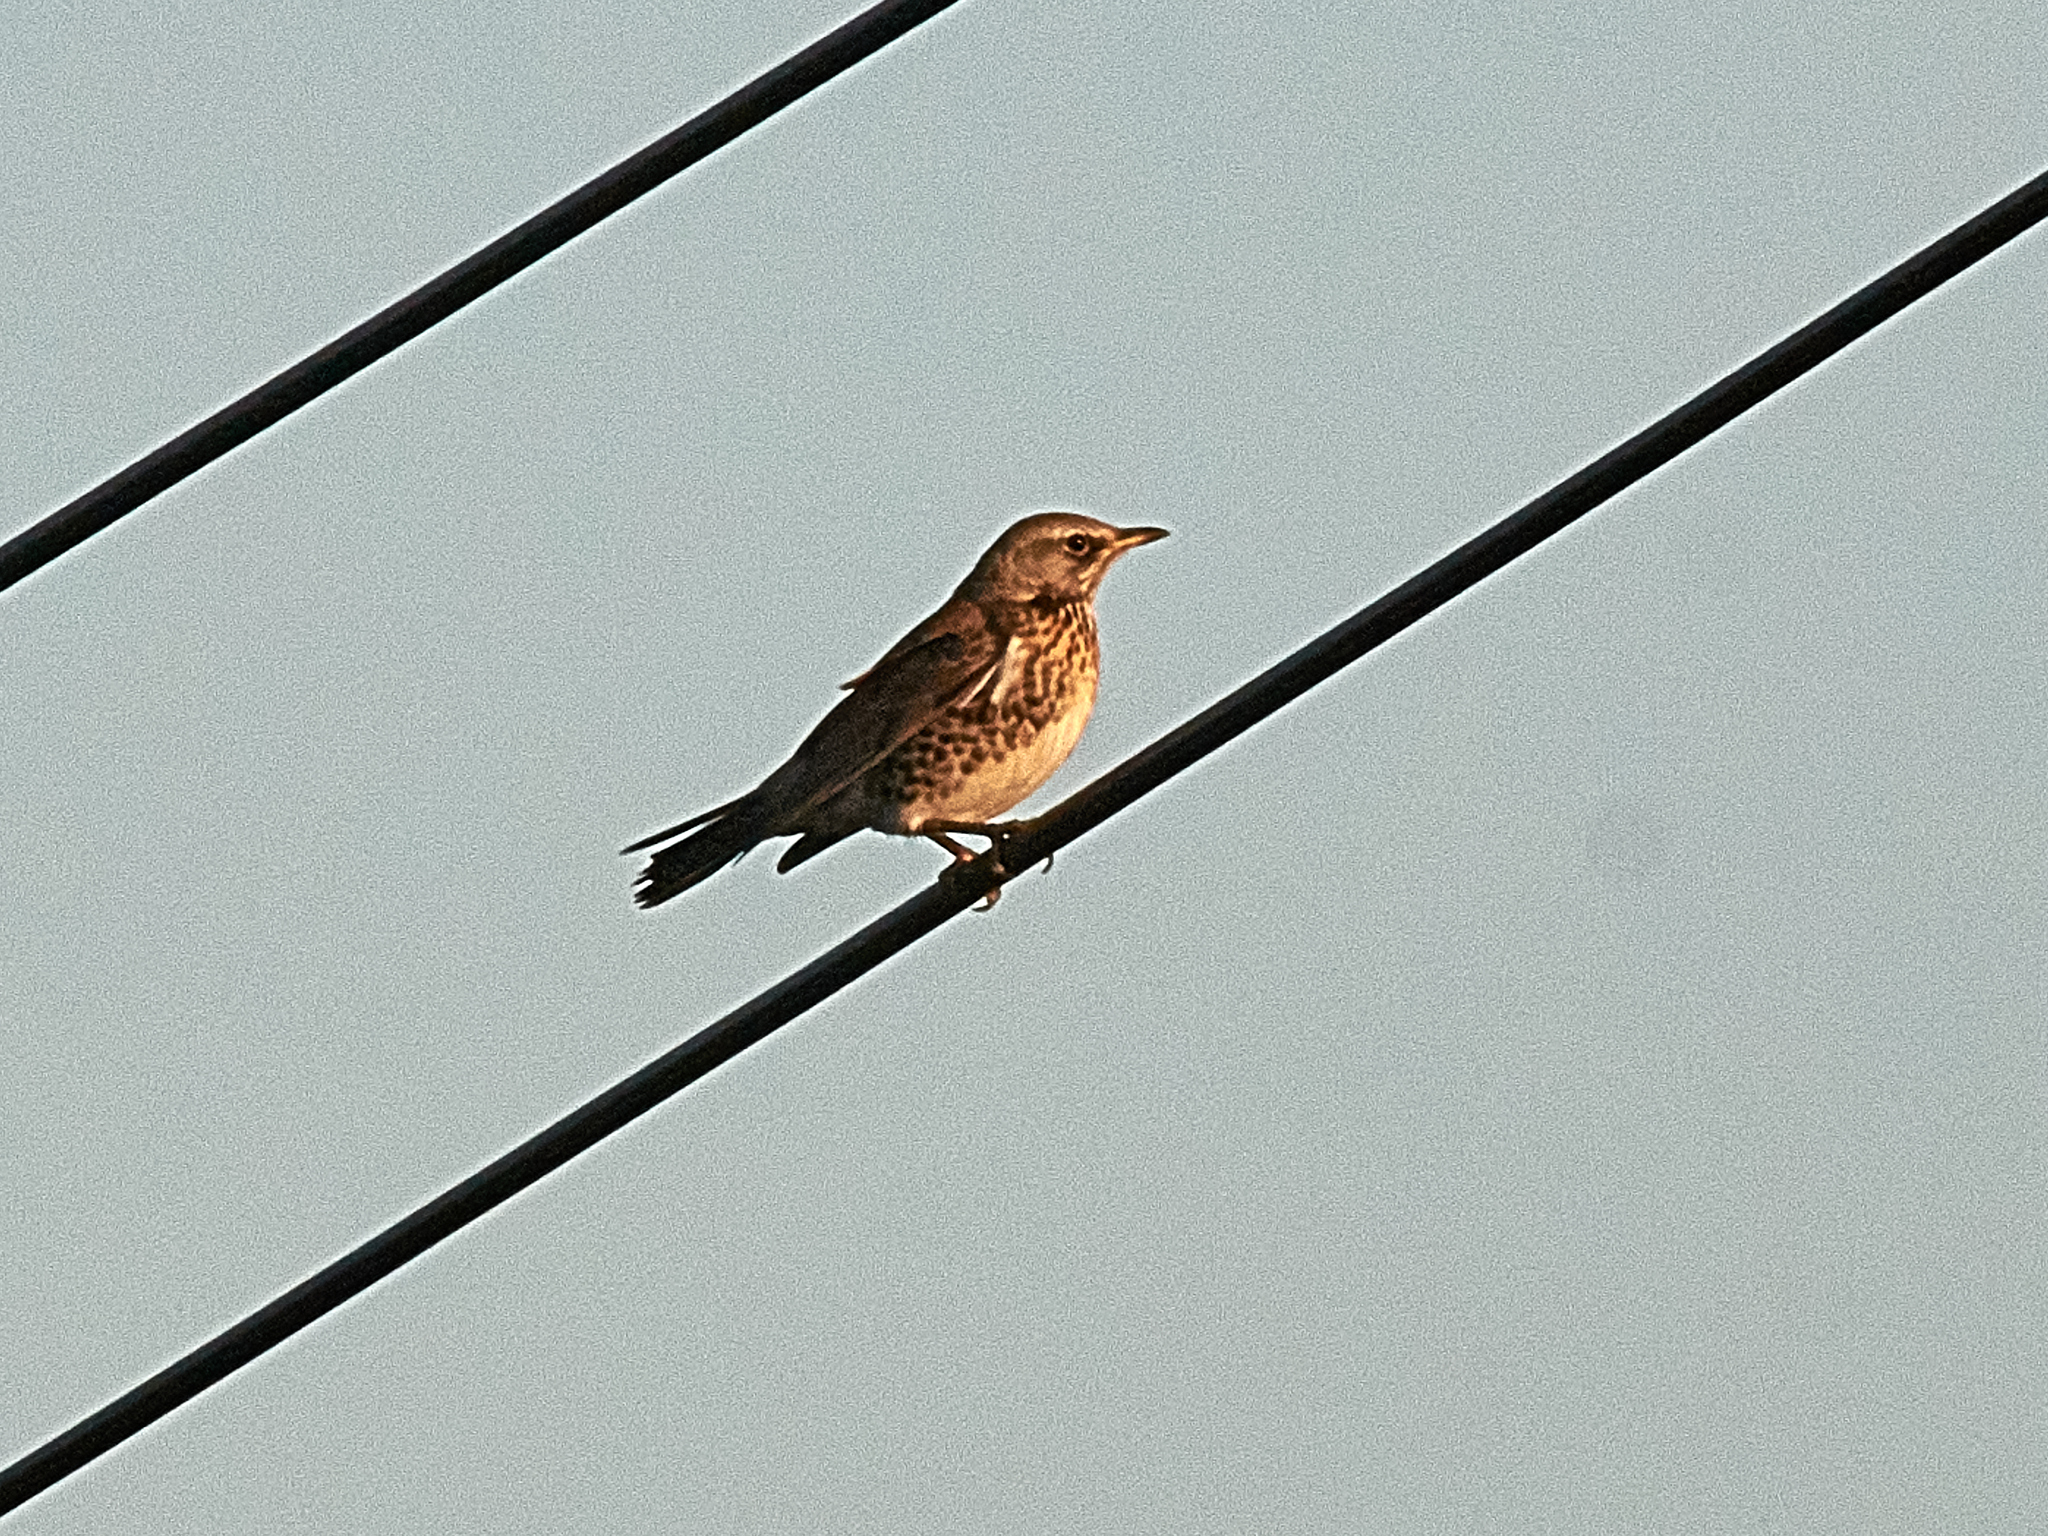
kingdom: Animalia
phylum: Chordata
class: Aves
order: Passeriformes
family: Turdidae
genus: Turdus
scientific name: Turdus pilaris
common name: Fieldfare
